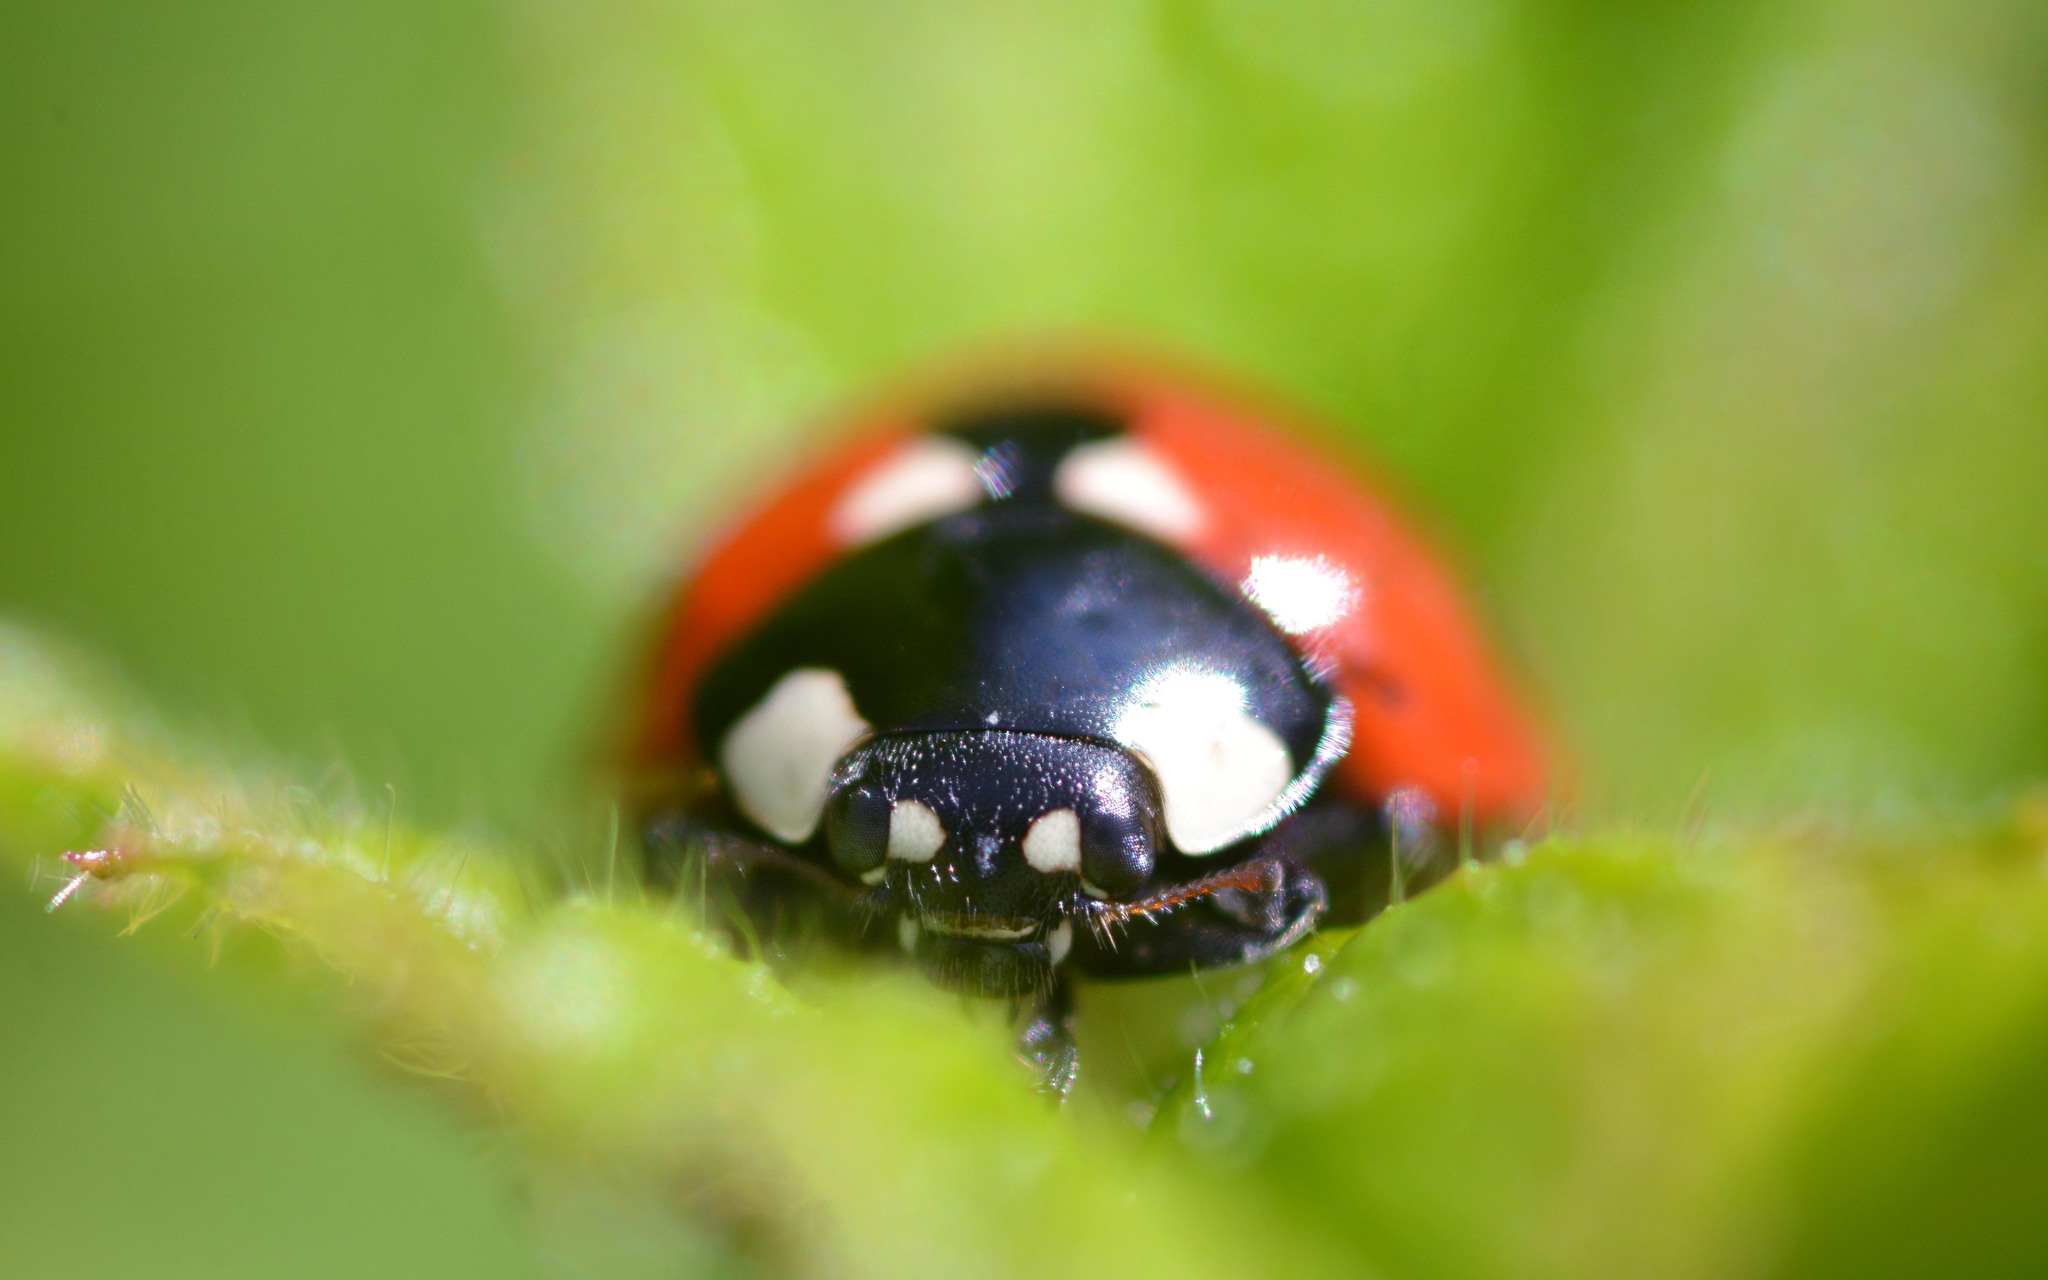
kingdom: Animalia
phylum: Arthropoda
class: Insecta
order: Coleoptera
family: Coccinellidae
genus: Coccinella
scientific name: Coccinella septempunctata
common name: Sevenspotted lady beetle
